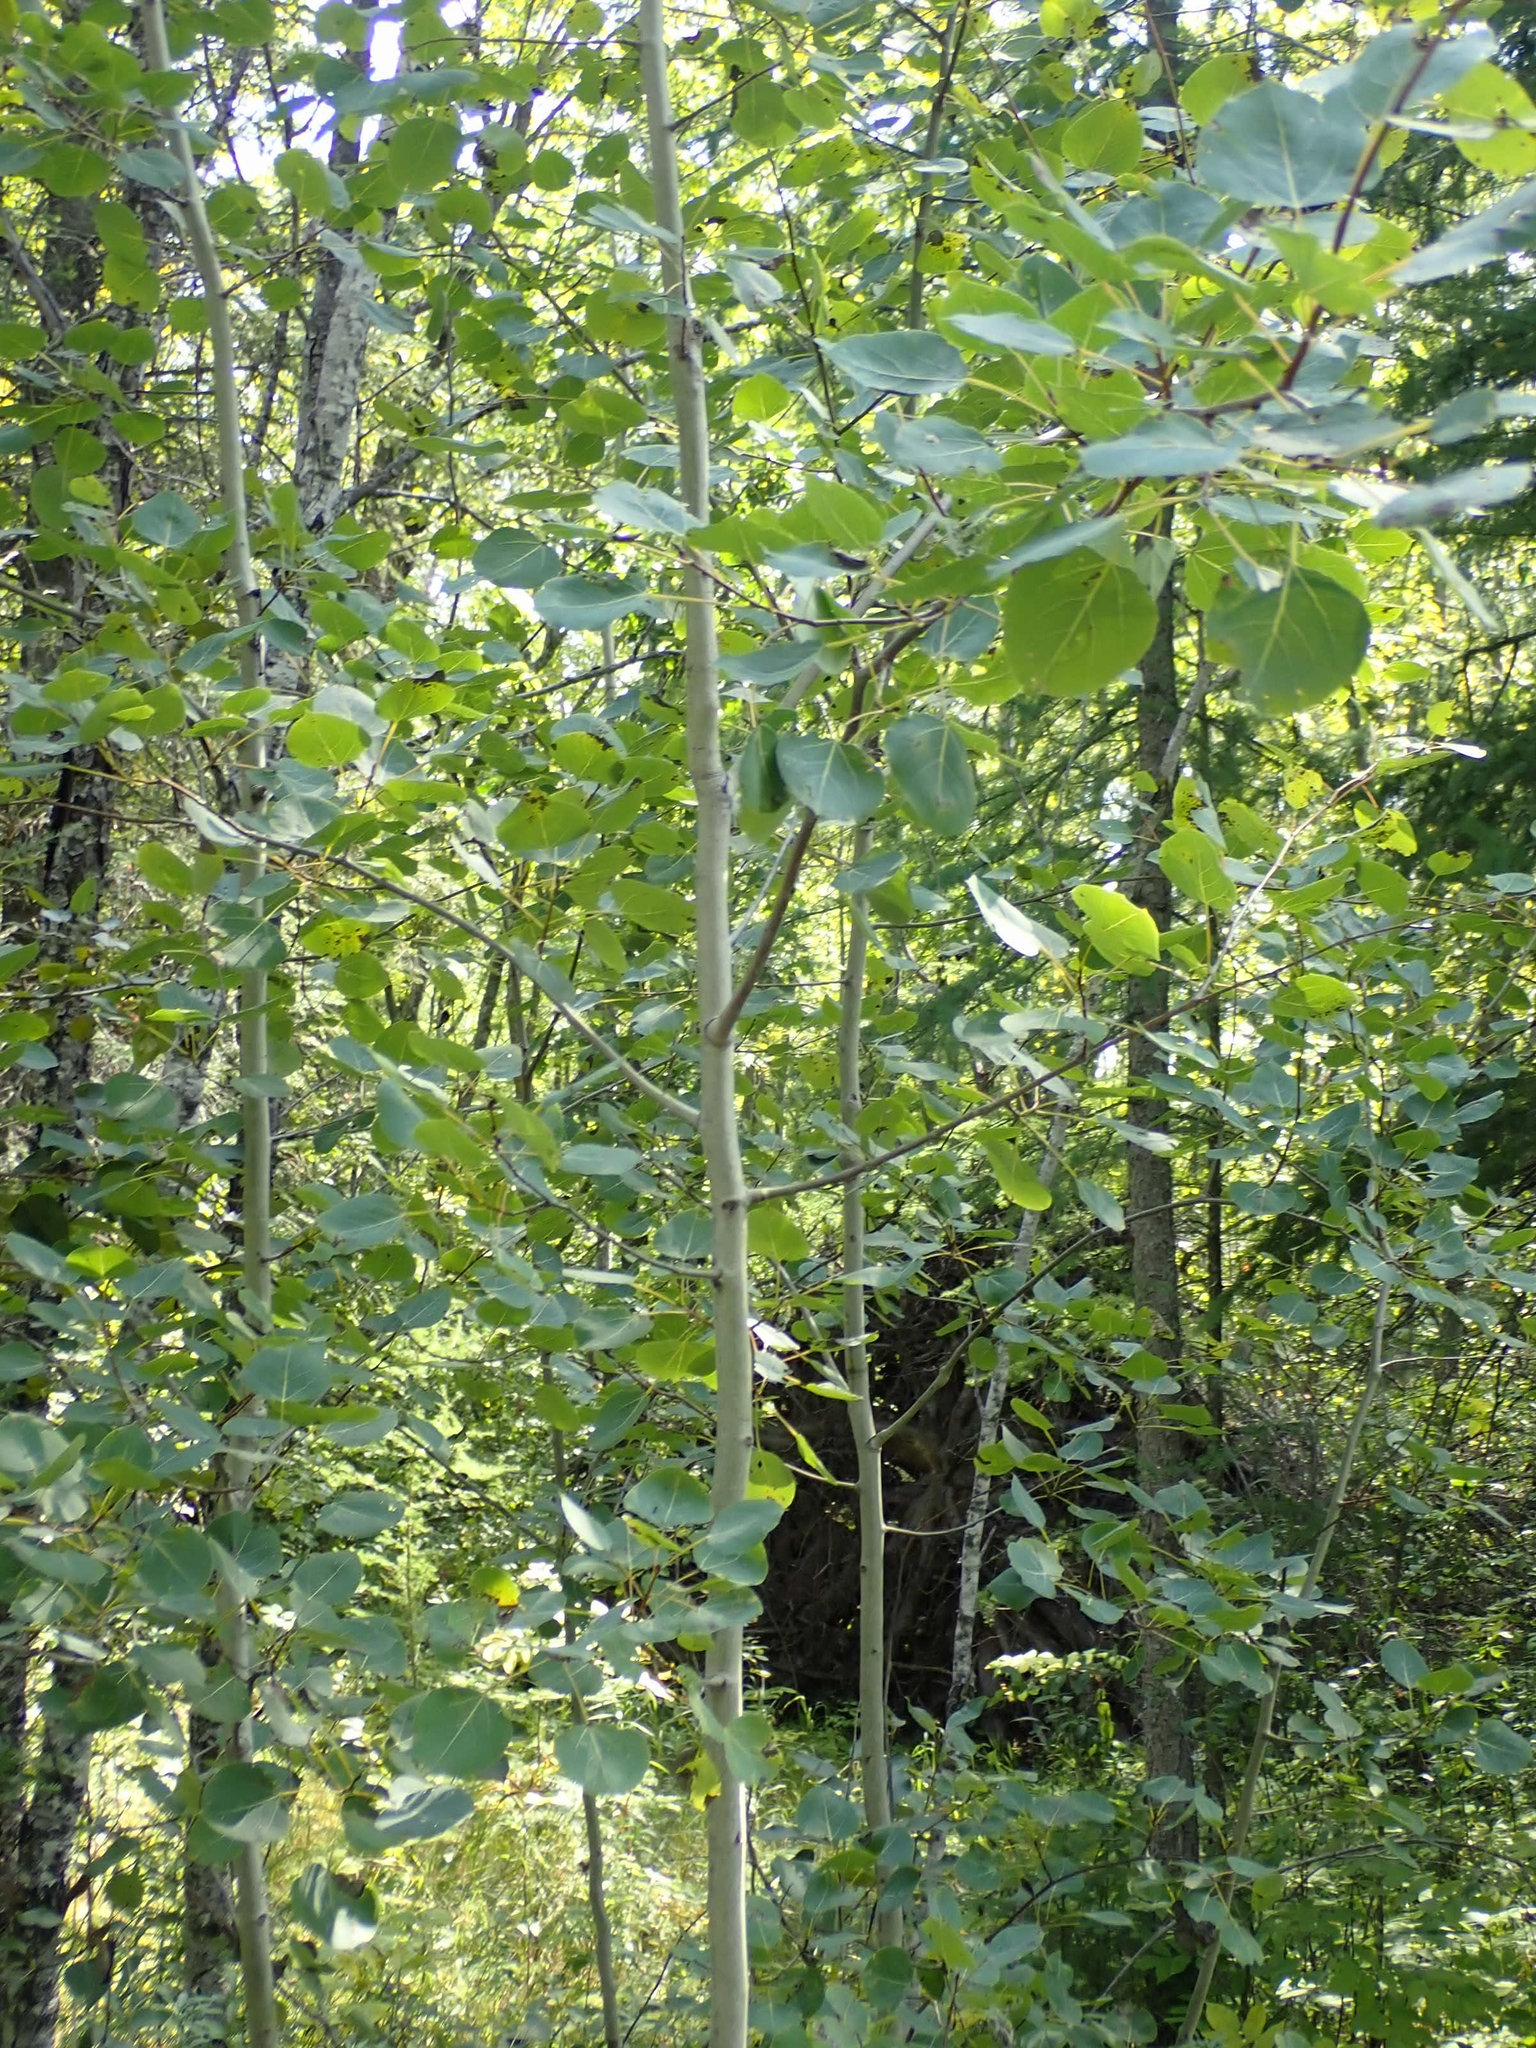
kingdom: Plantae
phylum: Tracheophyta
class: Magnoliopsida
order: Malpighiales
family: Salicaceae
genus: Populus
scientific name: Populus tremuloides
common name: Quaking aspen
